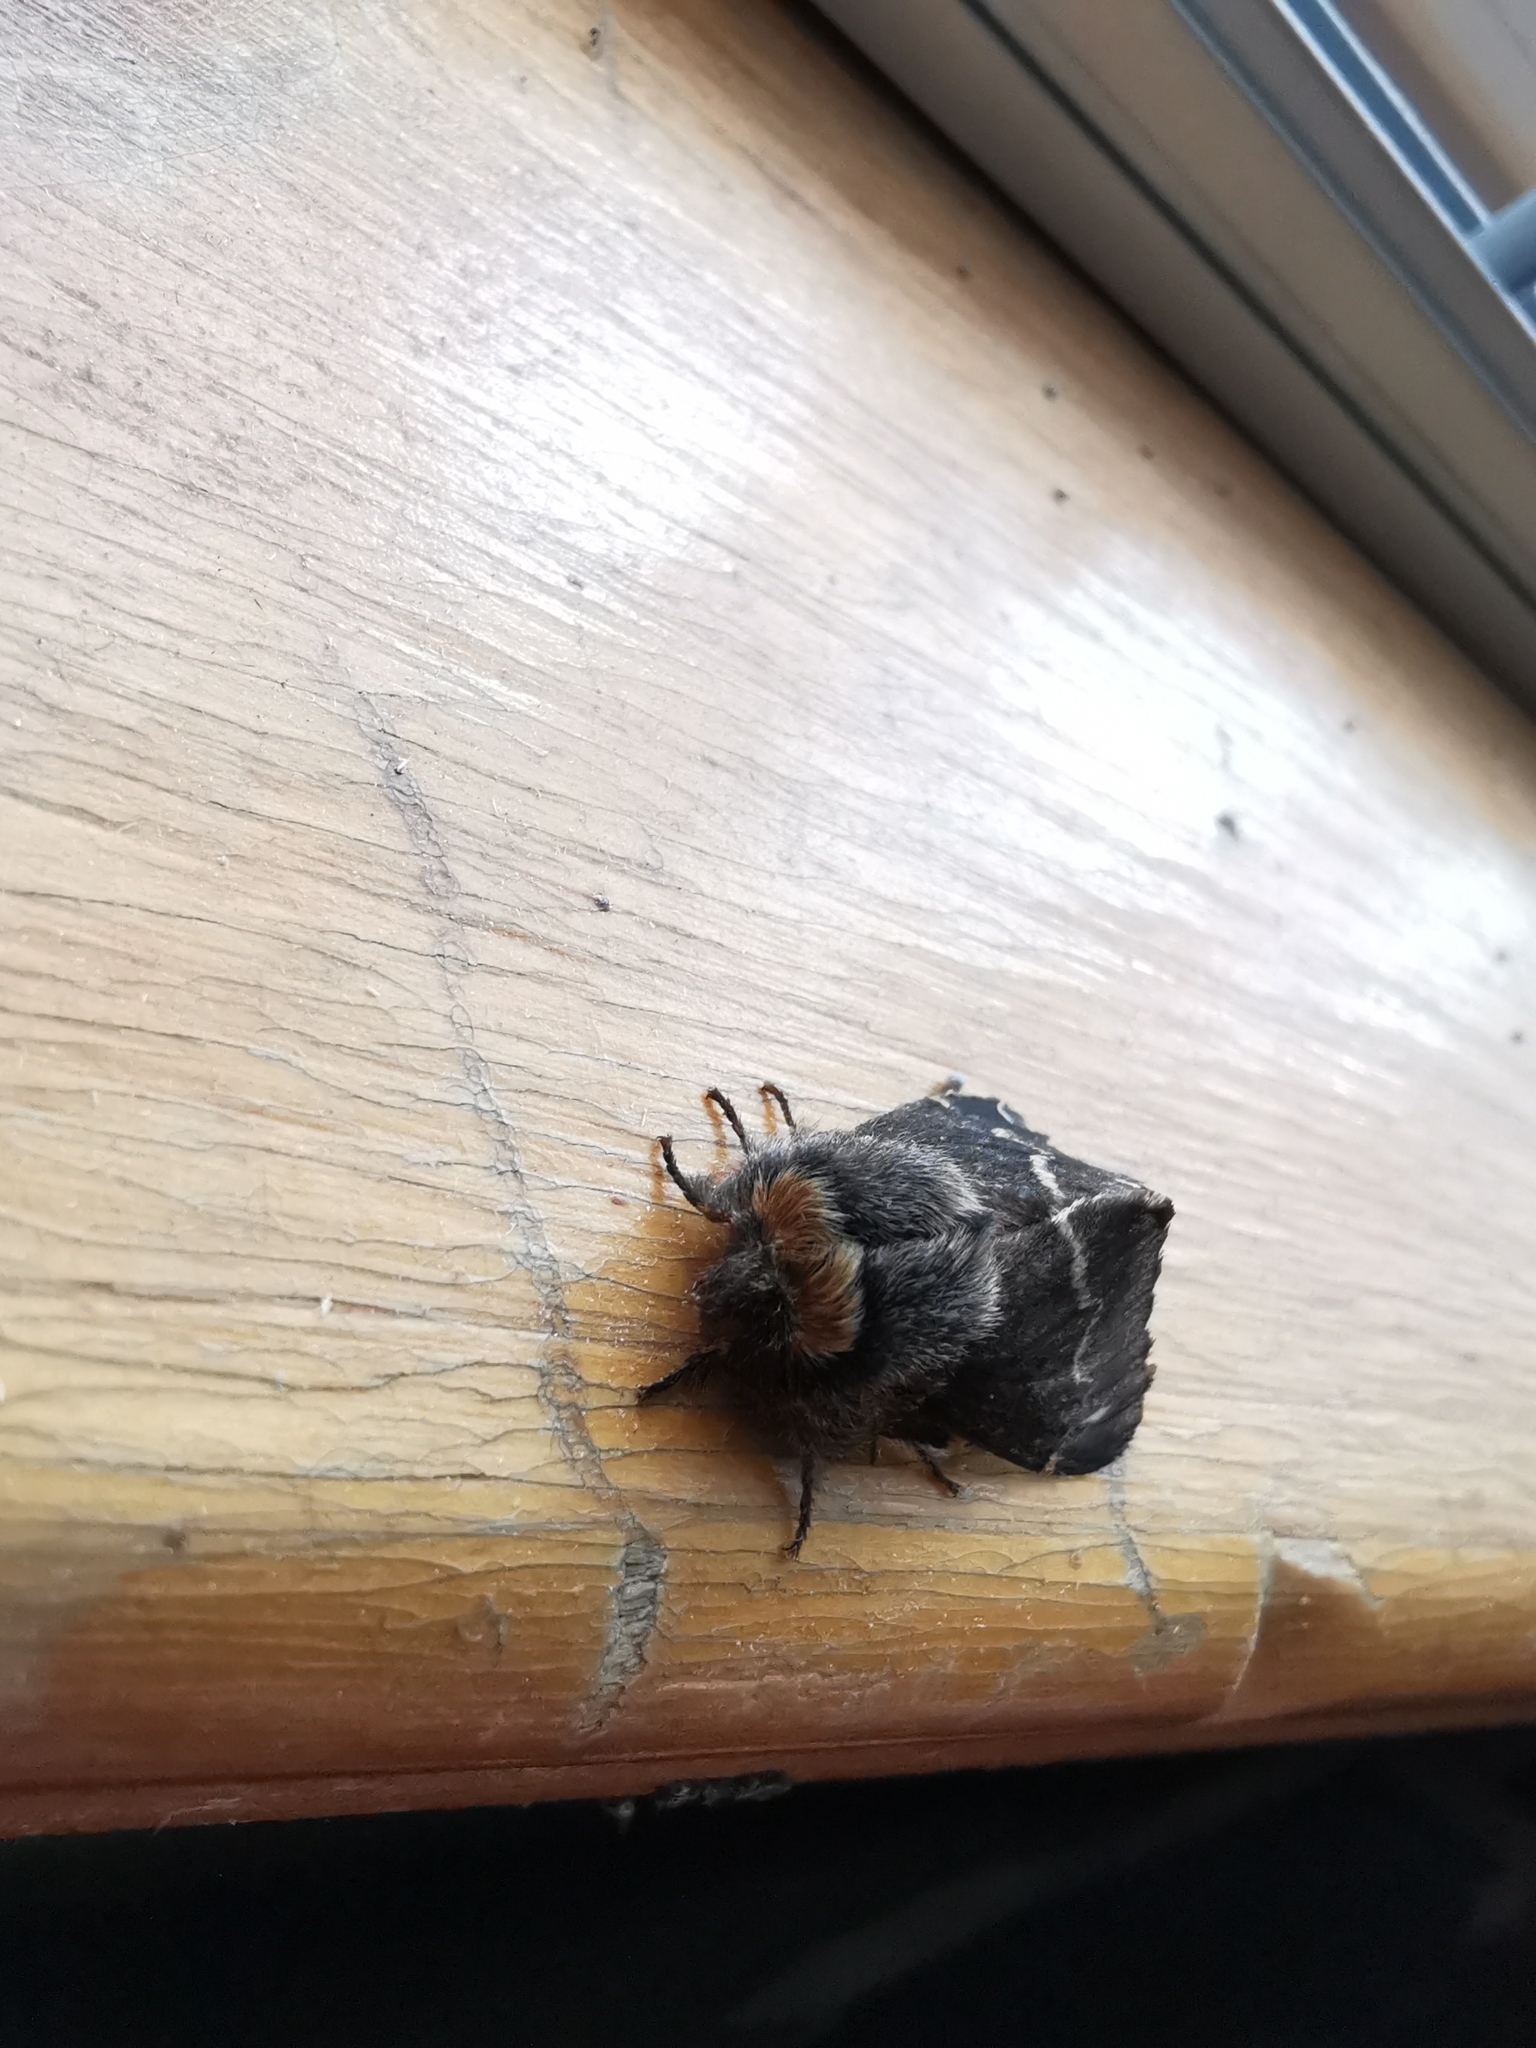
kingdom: Animalia
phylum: Arthropoda
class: Insecta
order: Lepidoptera
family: Lasiocampidae
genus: Poecilocampa
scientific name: Poecilocampa populi
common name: December moth
